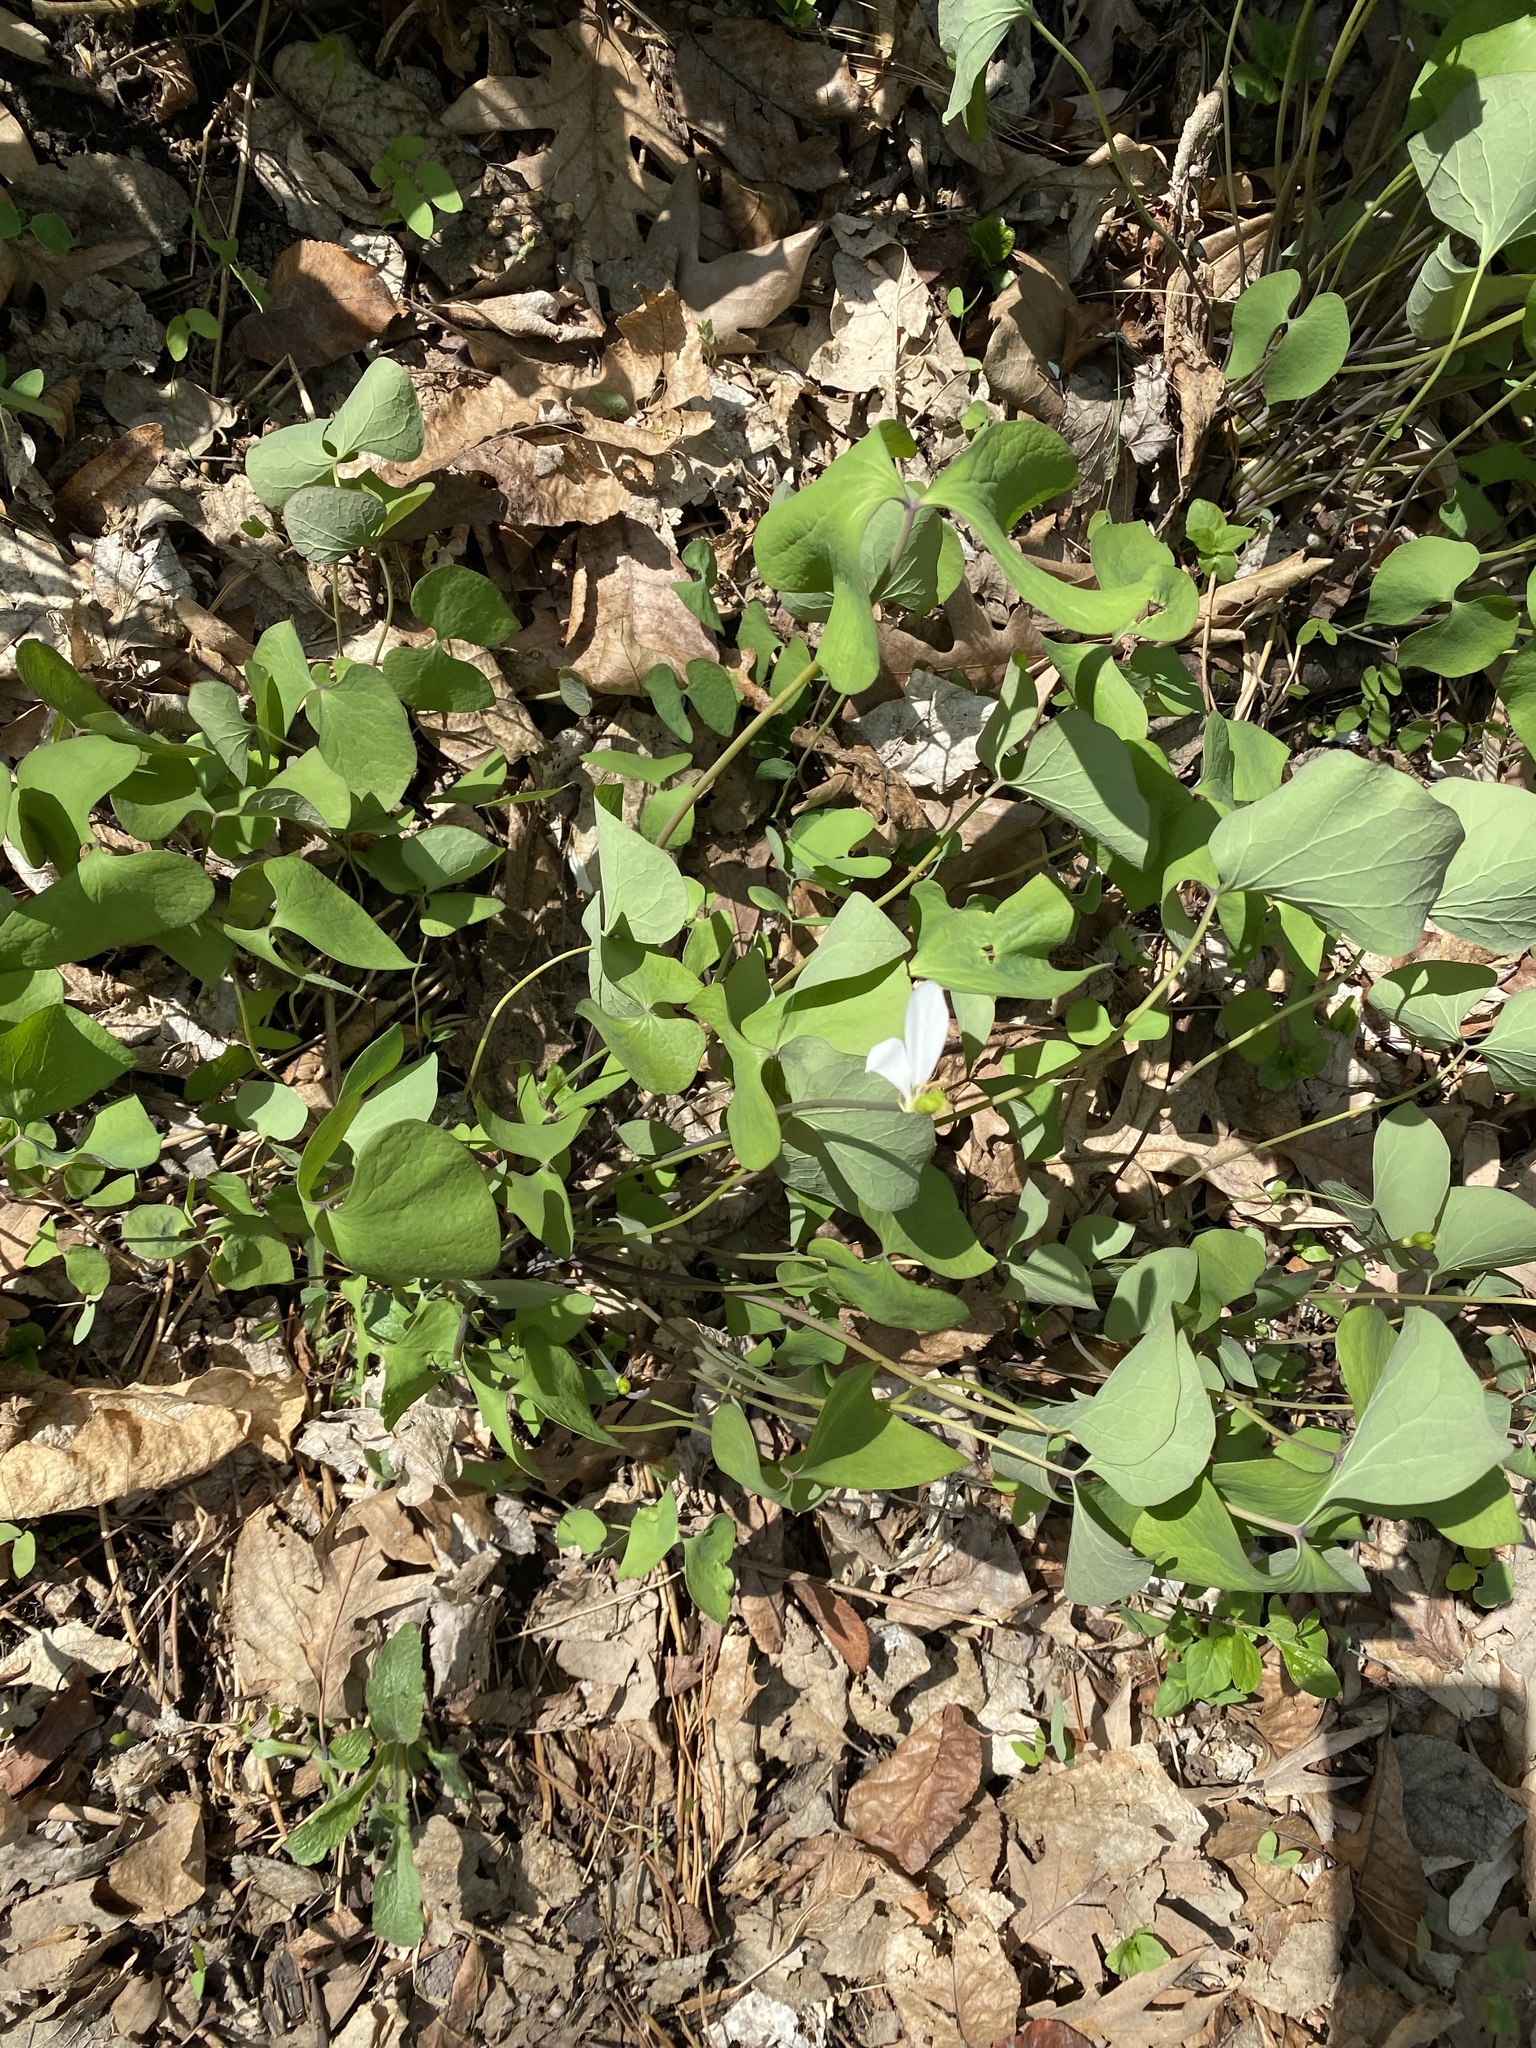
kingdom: Plantae
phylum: Tracheophyta
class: Magnoliopsida
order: Ranunculales
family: Berberidaceae
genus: Jeffersonia
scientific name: Jeffersonia diphylla
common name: Rheumatism-root
